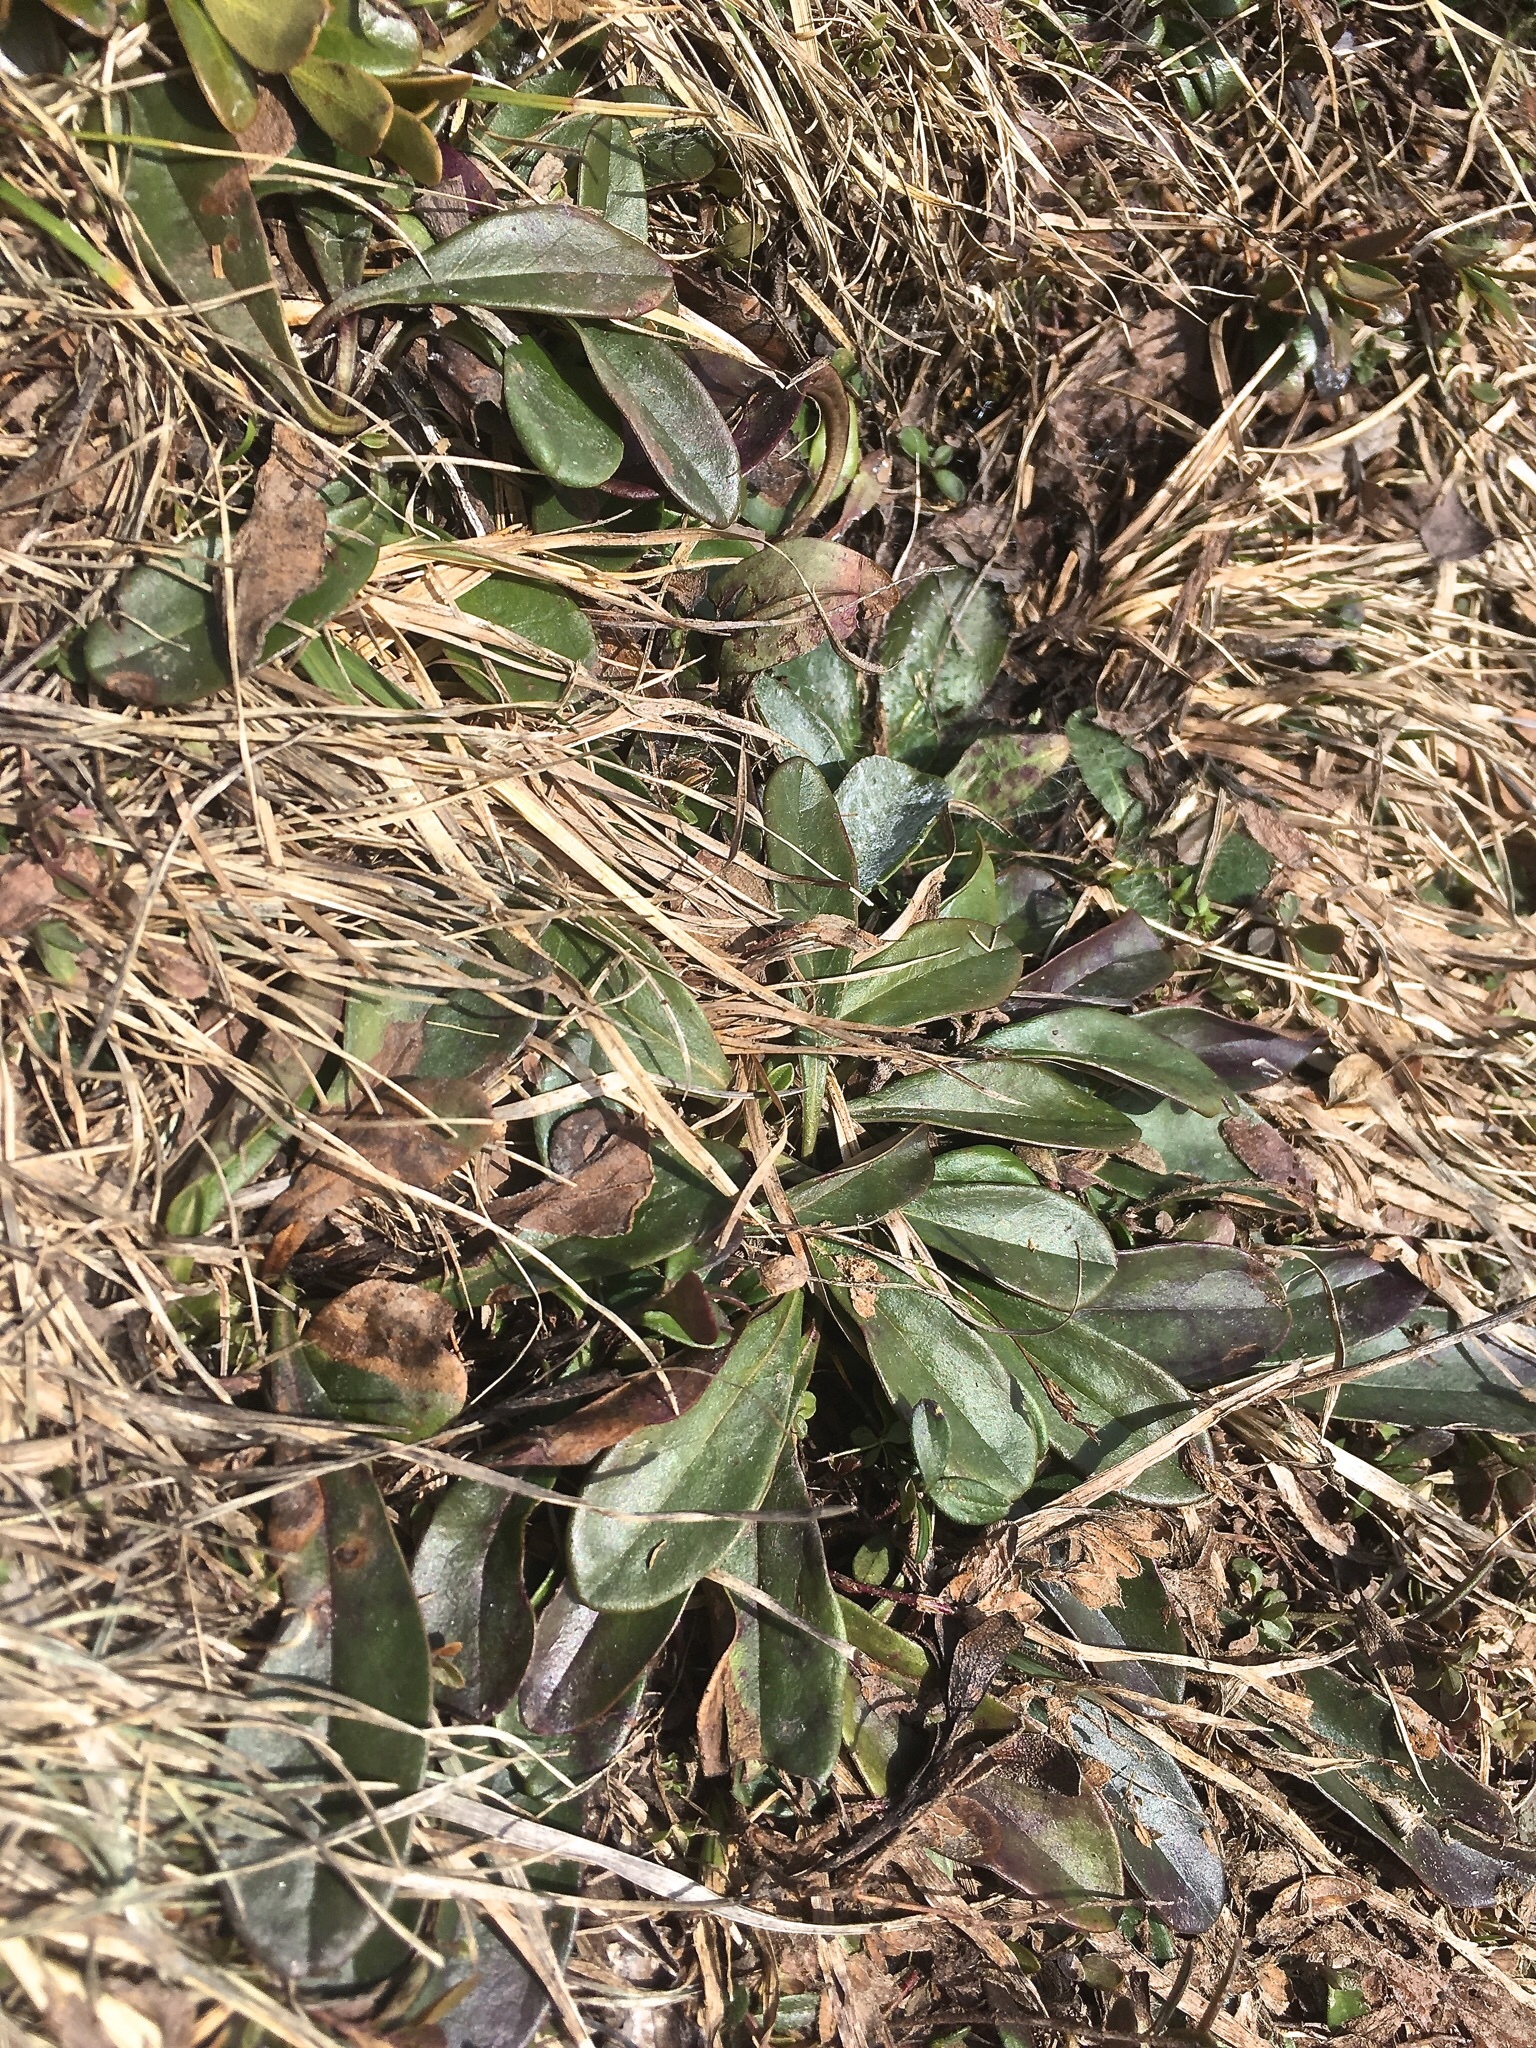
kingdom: Plantae
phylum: Tracheophyta
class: Magnoliopsida
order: Lamiales
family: Plantaginaceae
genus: Globularia
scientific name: Globularia nudicaulis
